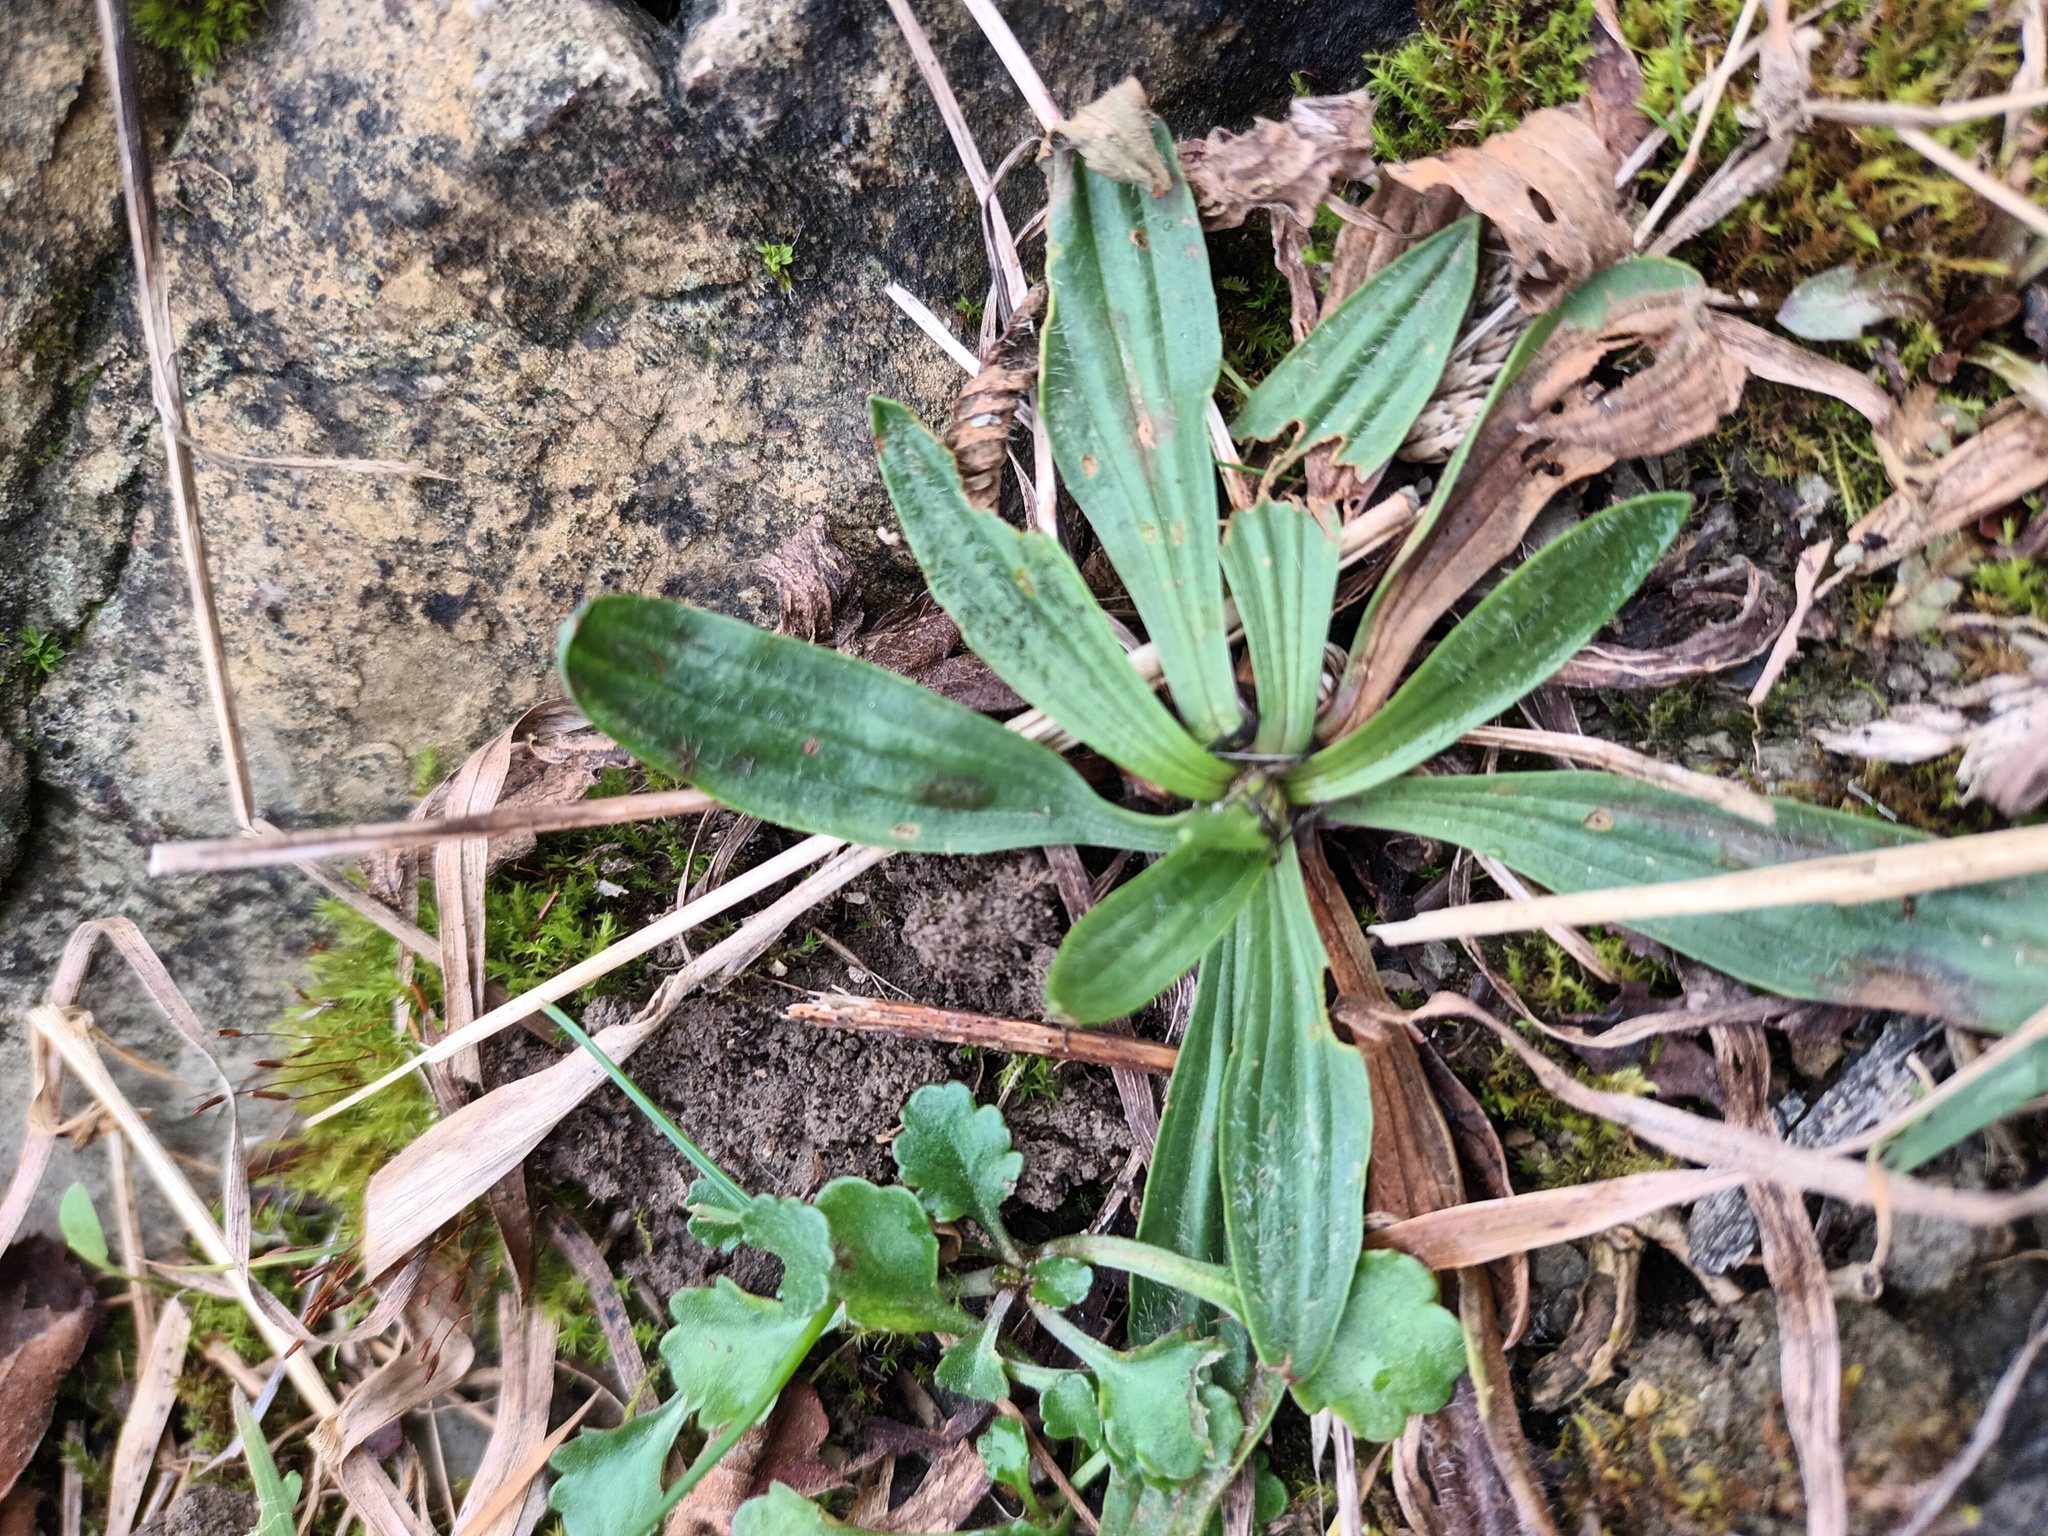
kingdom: Plantae
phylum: Tracheophyta
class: Magnoliopsida
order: Lamiales
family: Plantaginaceae
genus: Plantago
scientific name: Plantago lanceolata
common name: Ribwort plantain
